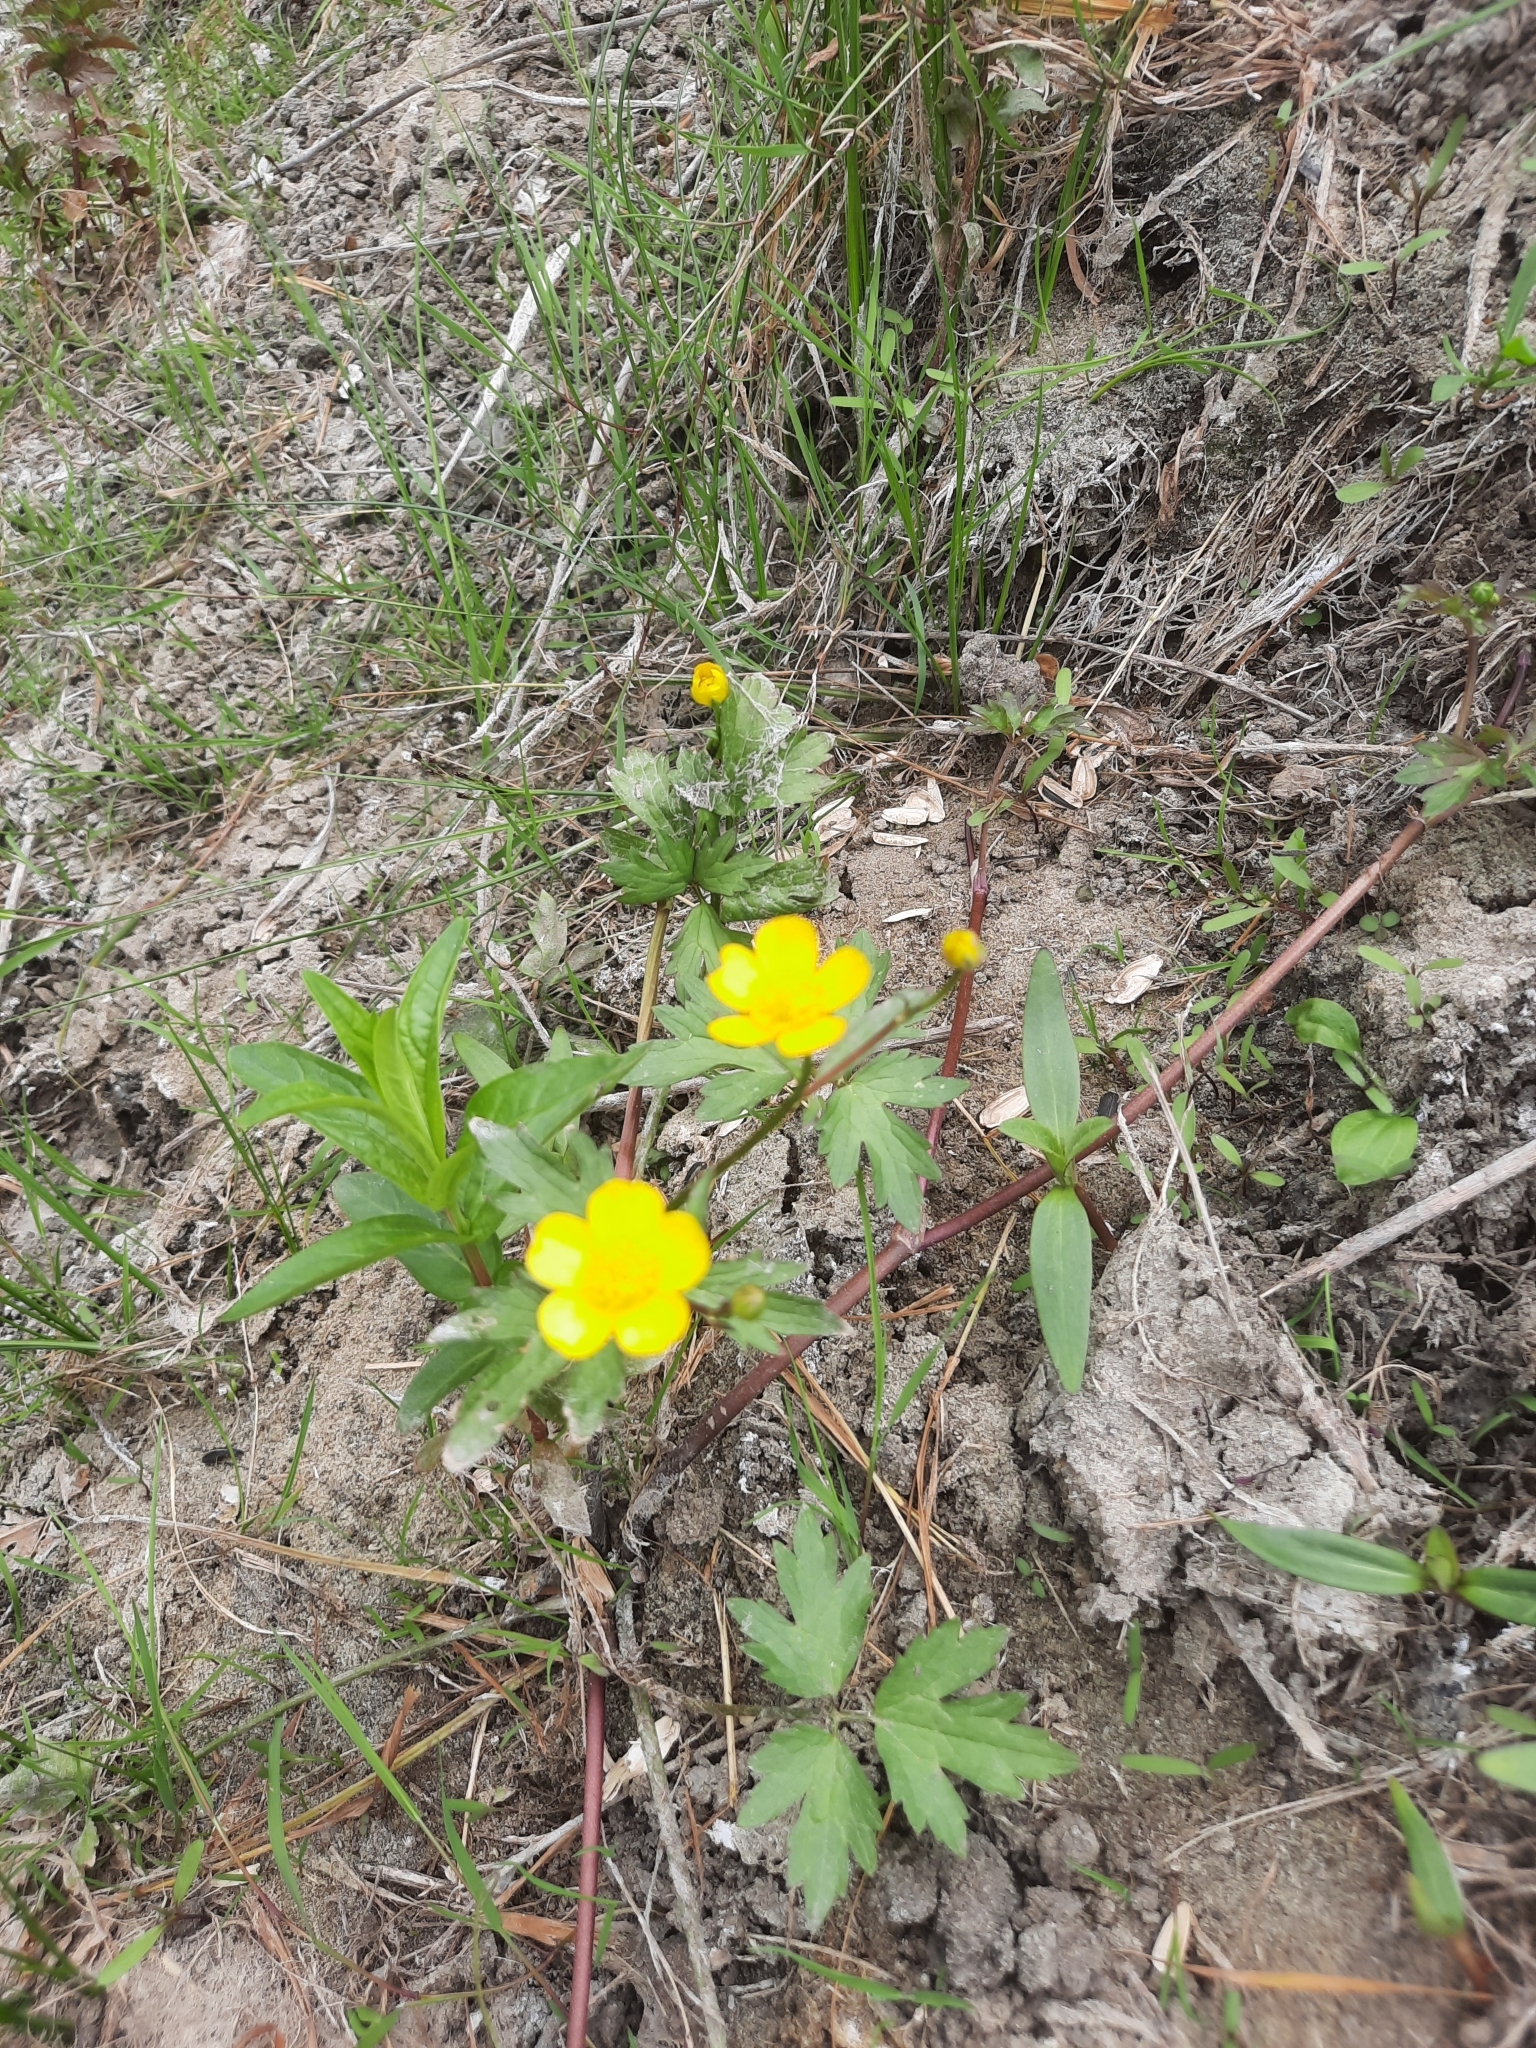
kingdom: Plantae
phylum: Tracheophyta
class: Magnoliopsida
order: Ranunculales
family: Ranunculaceae
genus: Ranunculus
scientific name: Ranunculus repens
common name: Creeping buttercup
